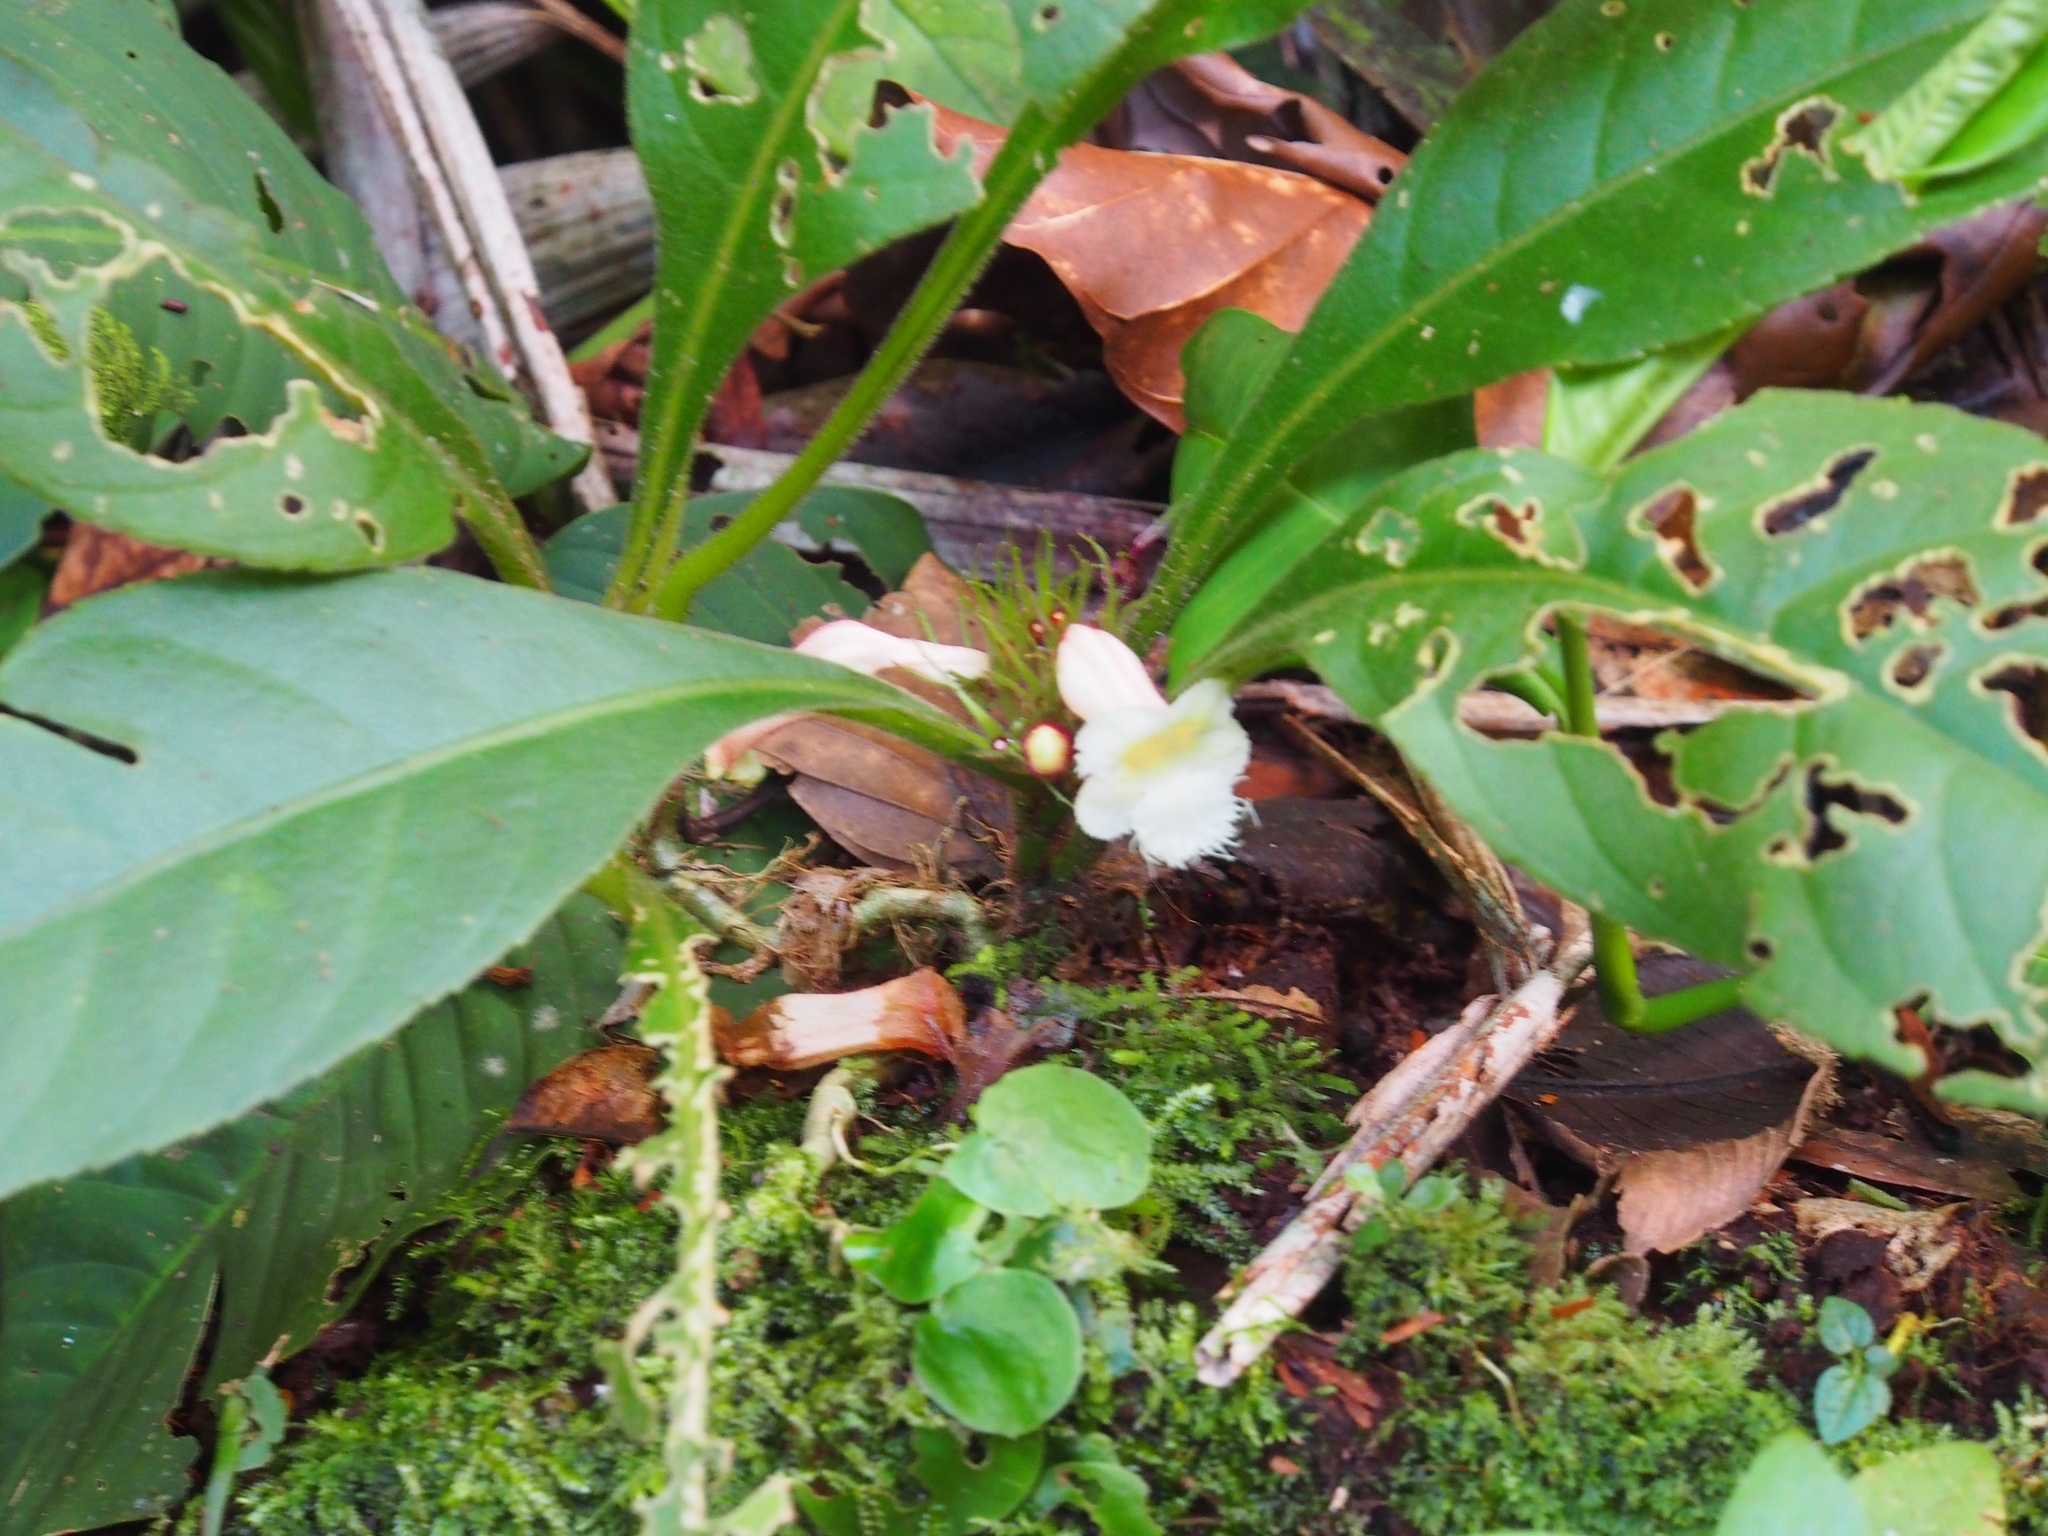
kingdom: Plantae
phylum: Tracheophyta
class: Magnoliopsida
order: Lamiales
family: Gesneriaceae
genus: Paradrymonia
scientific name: Paradrymonia ciliosa
